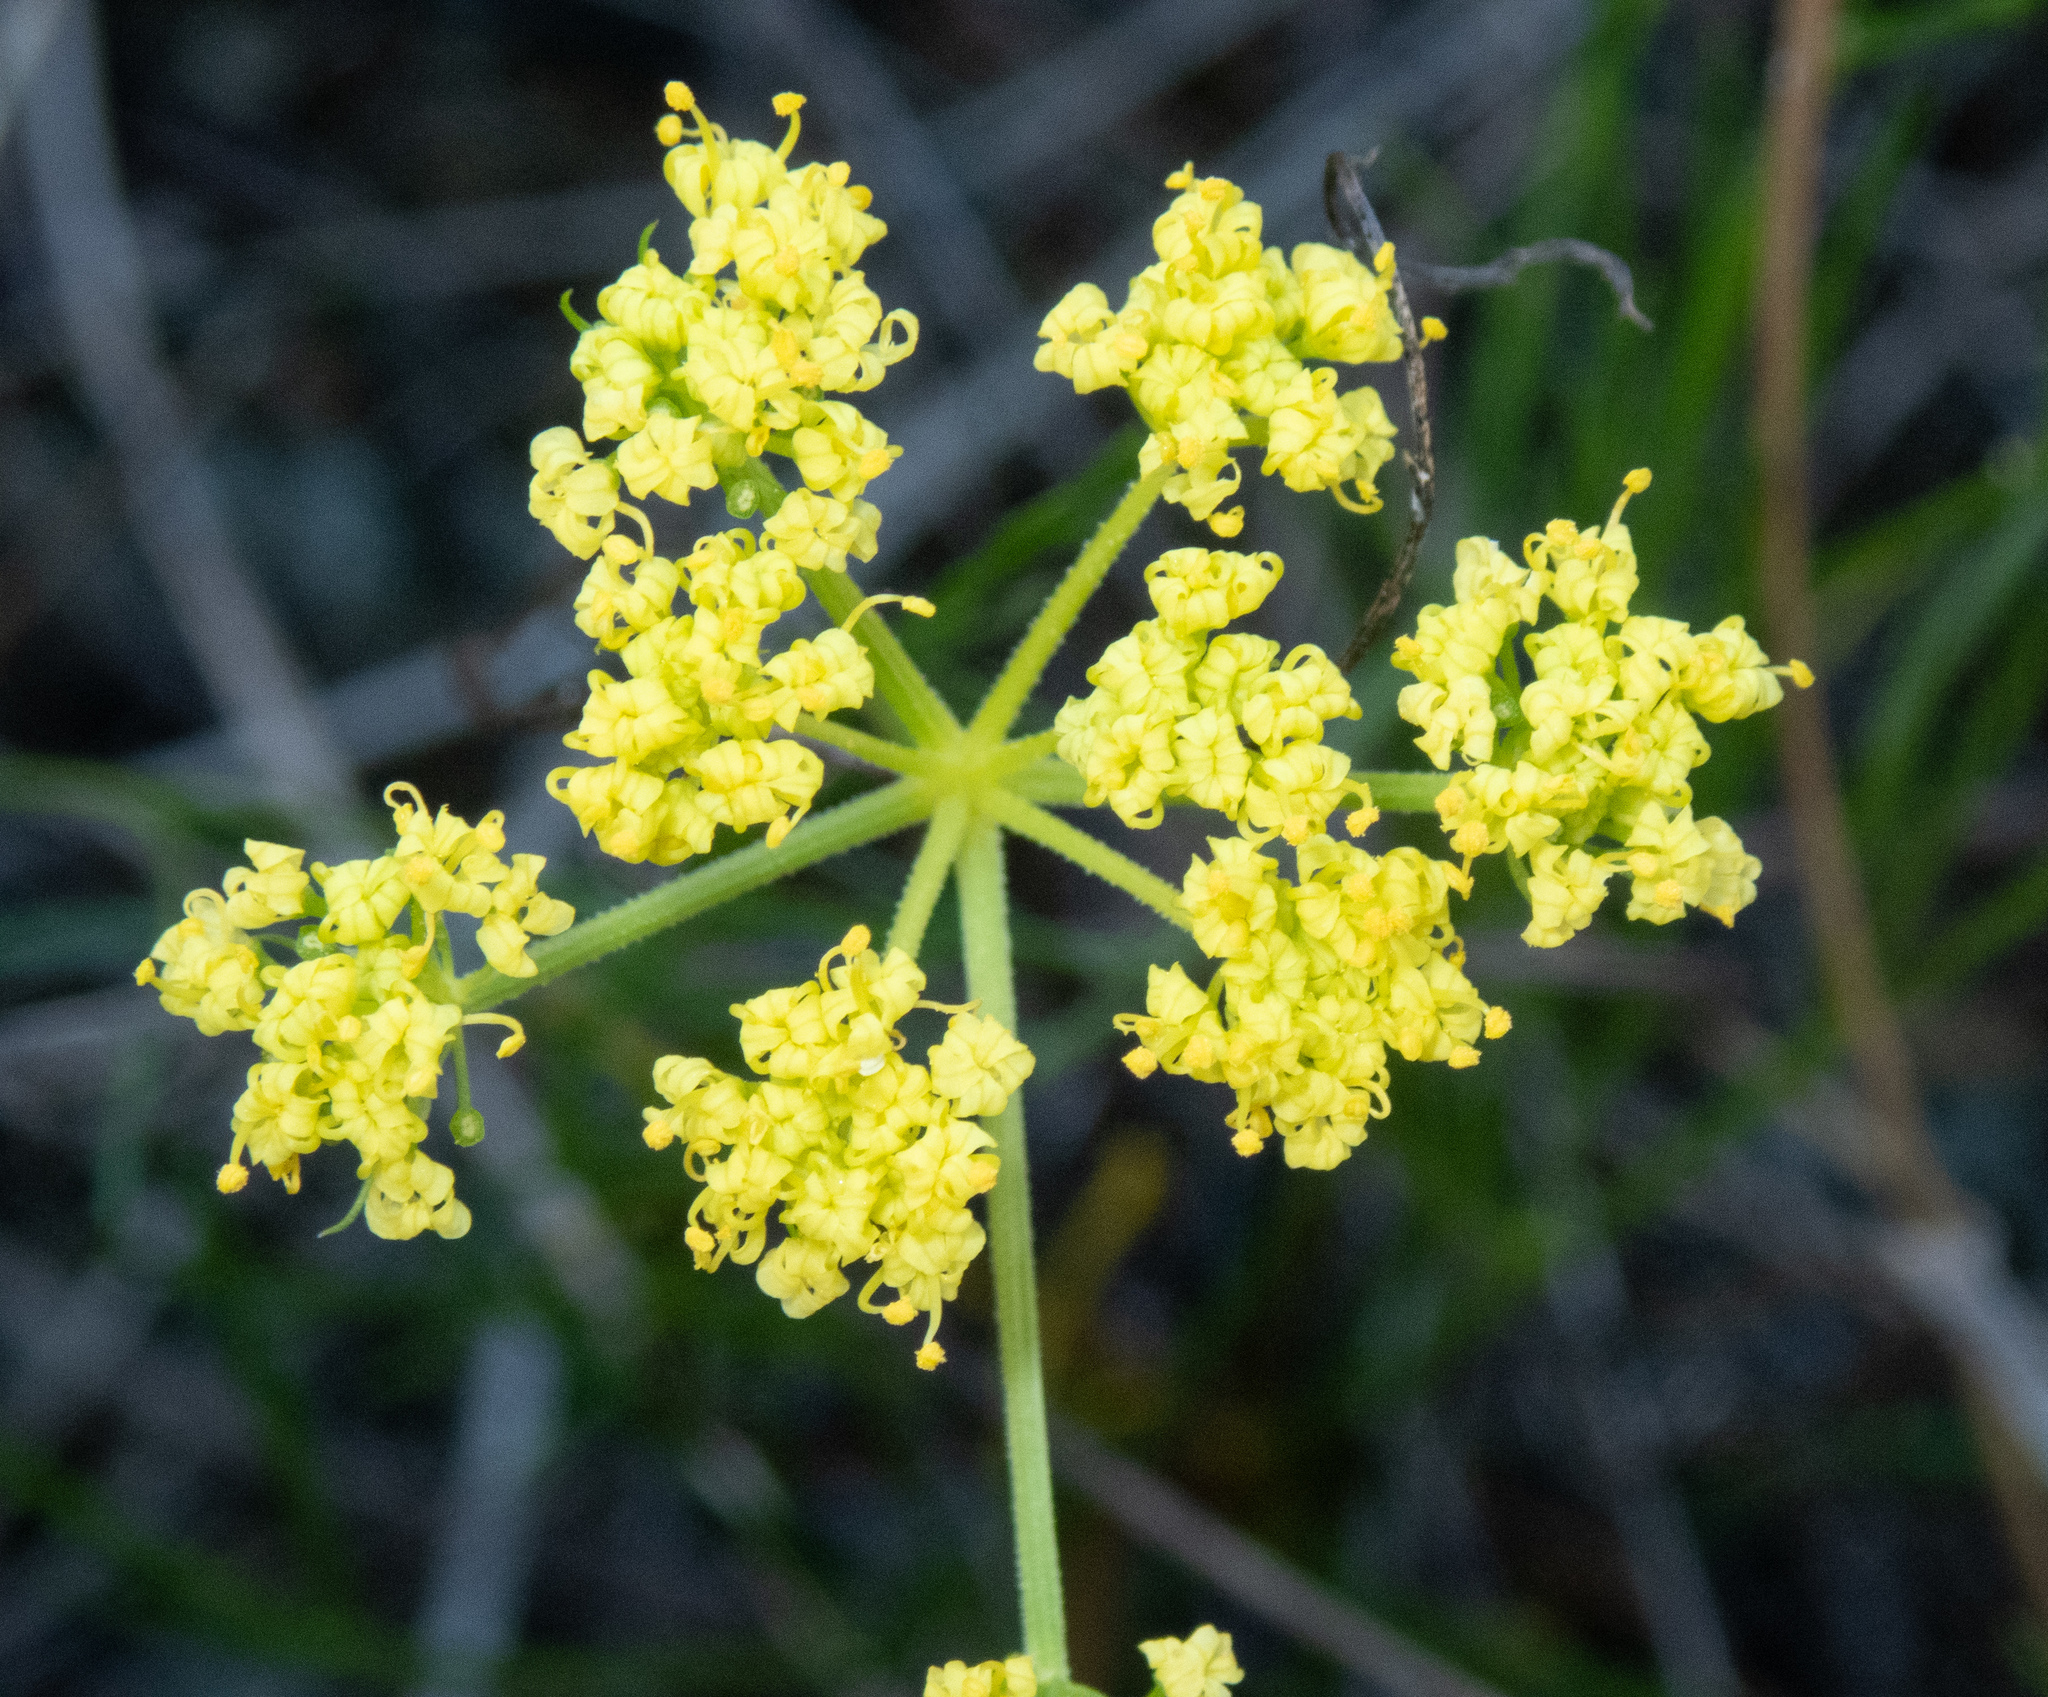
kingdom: Plantae
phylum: Tracheophyta
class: Magnoliopsida
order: Apiales
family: Apiaceae
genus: Lomatium
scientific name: Lomatium utriculatum
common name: Fine-leaf desert-parsley
